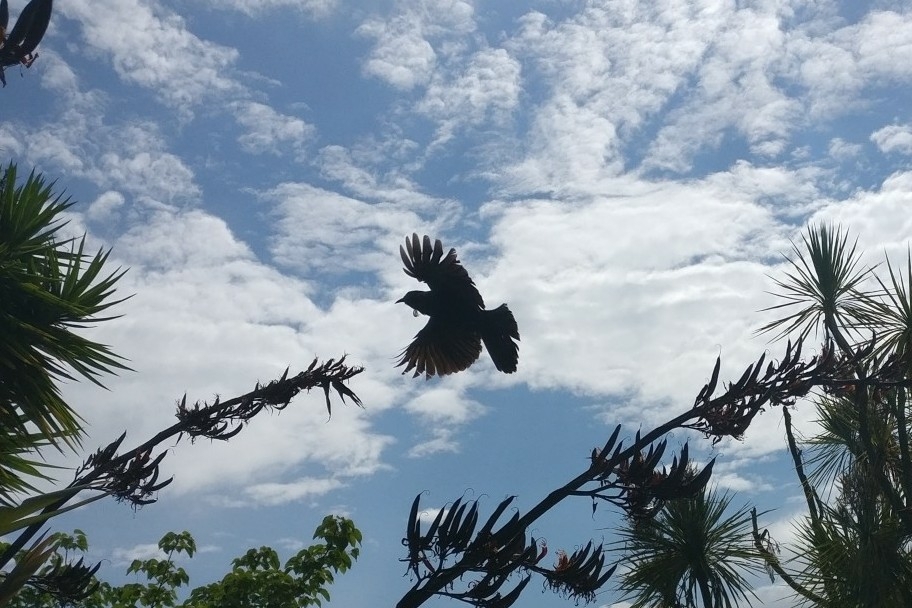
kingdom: Animalia
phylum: Chordata
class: Aves
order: Passeriformes
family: Meliphagidae
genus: Prosthemadera
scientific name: Prosthemadera novaeseelandiae
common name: Tui
